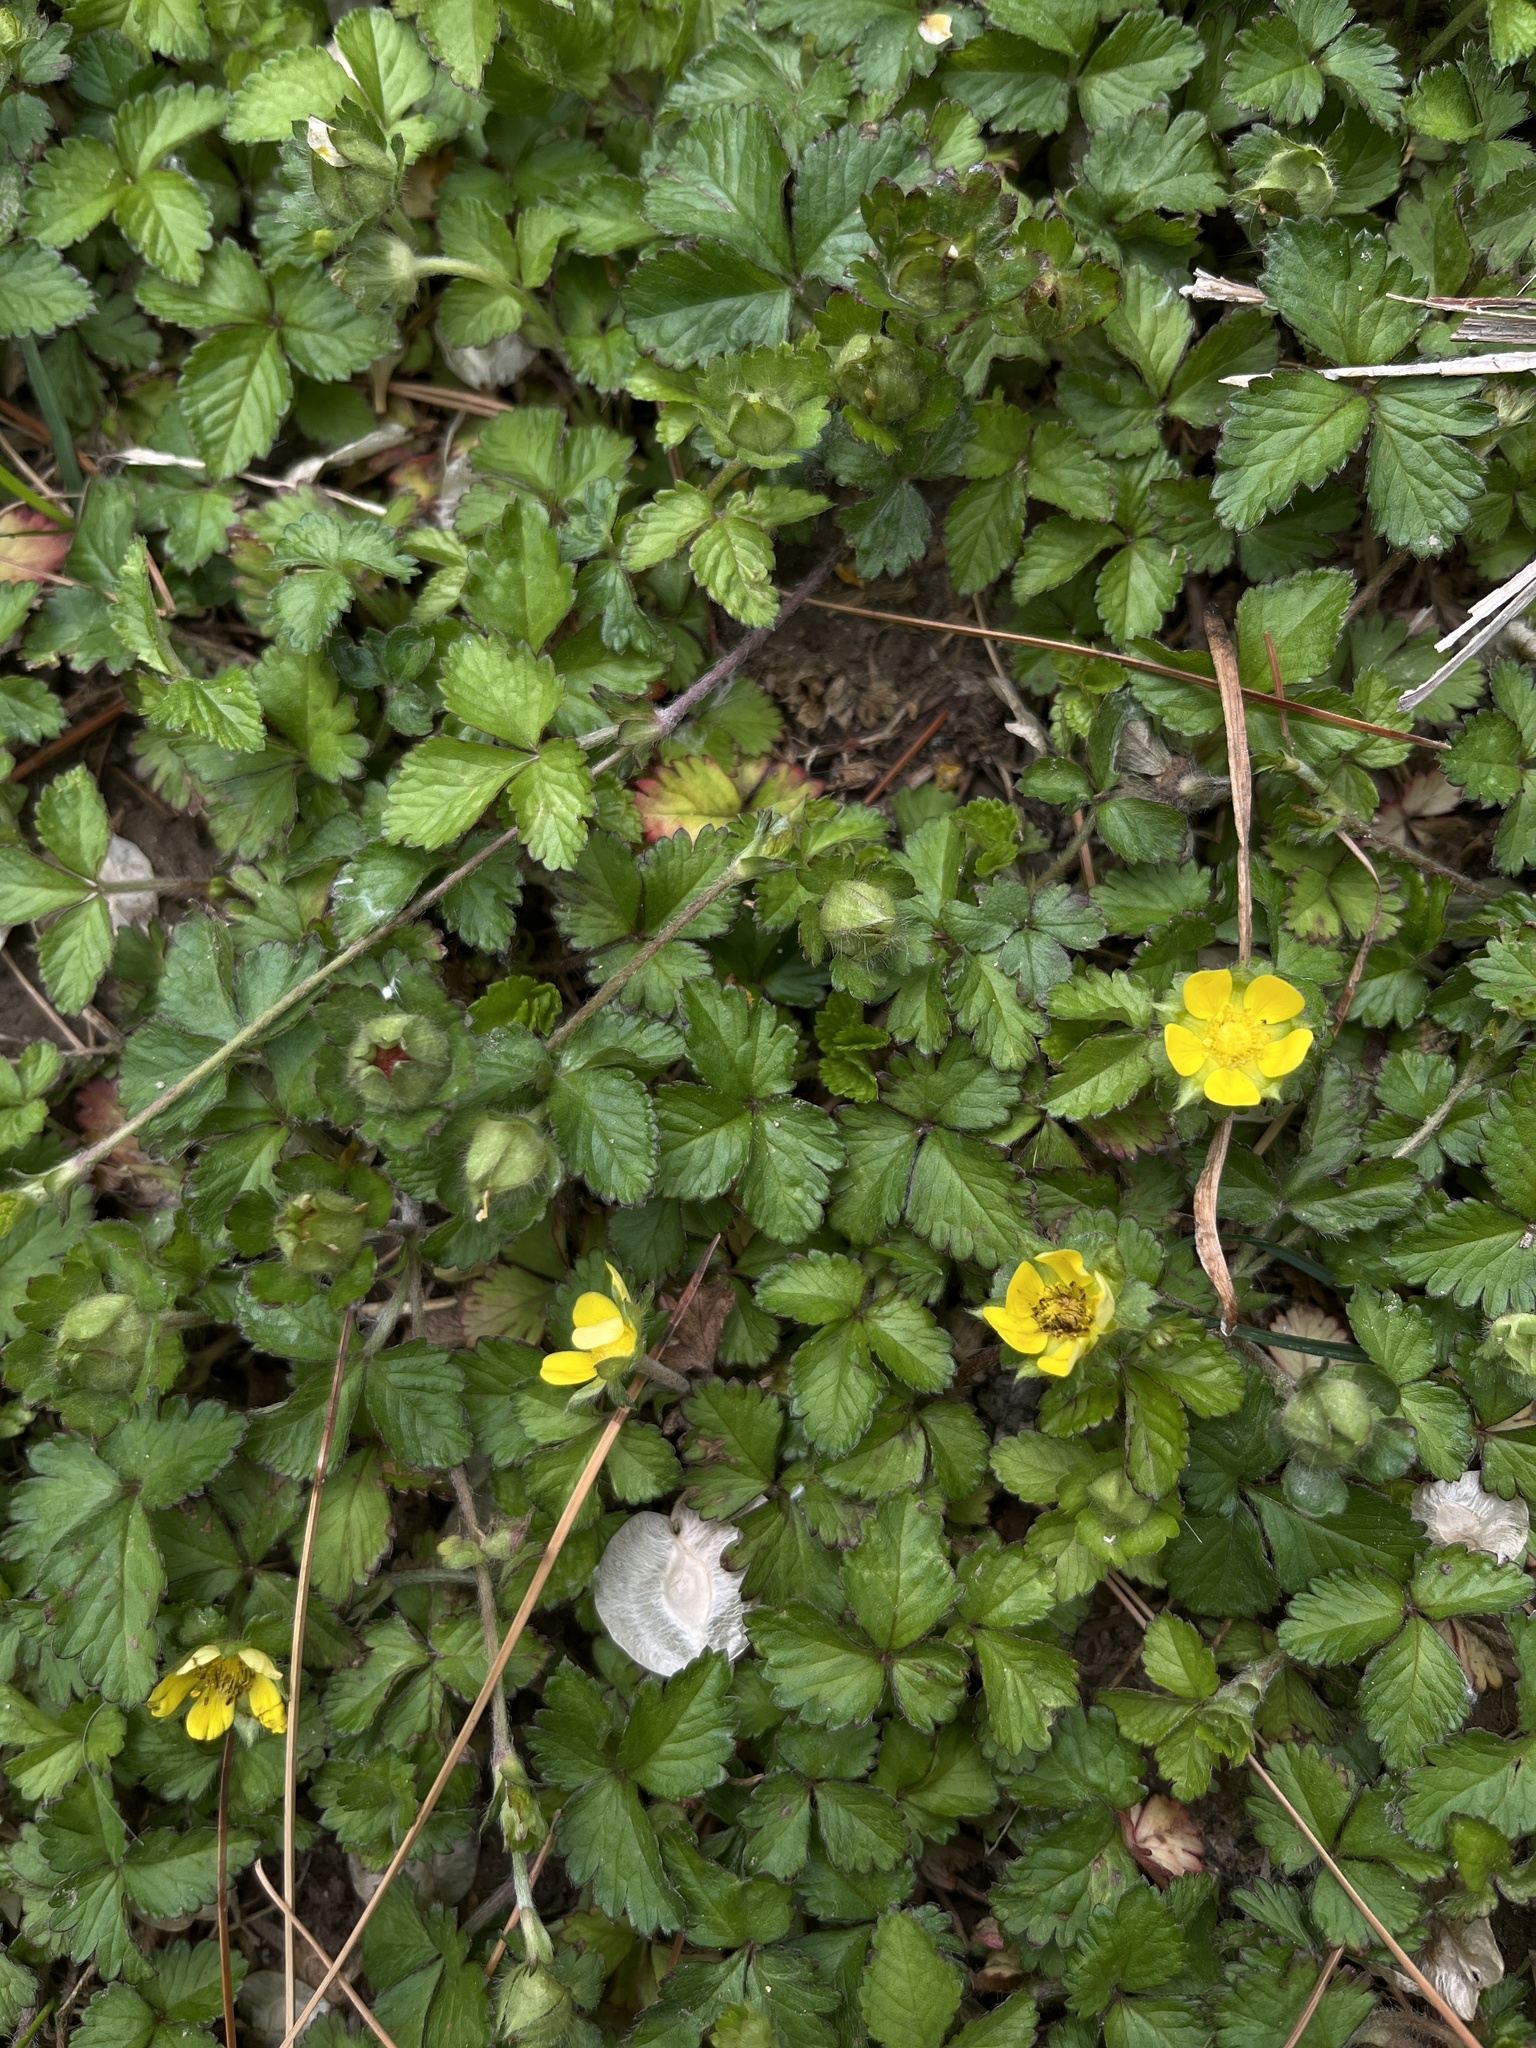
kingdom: Plantae
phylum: Tracheophyta
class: Magnoliopsida
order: Rosales
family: Rosaceae
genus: Potentilla
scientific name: Potentilla indica
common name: Yellow-flowered strawberry
